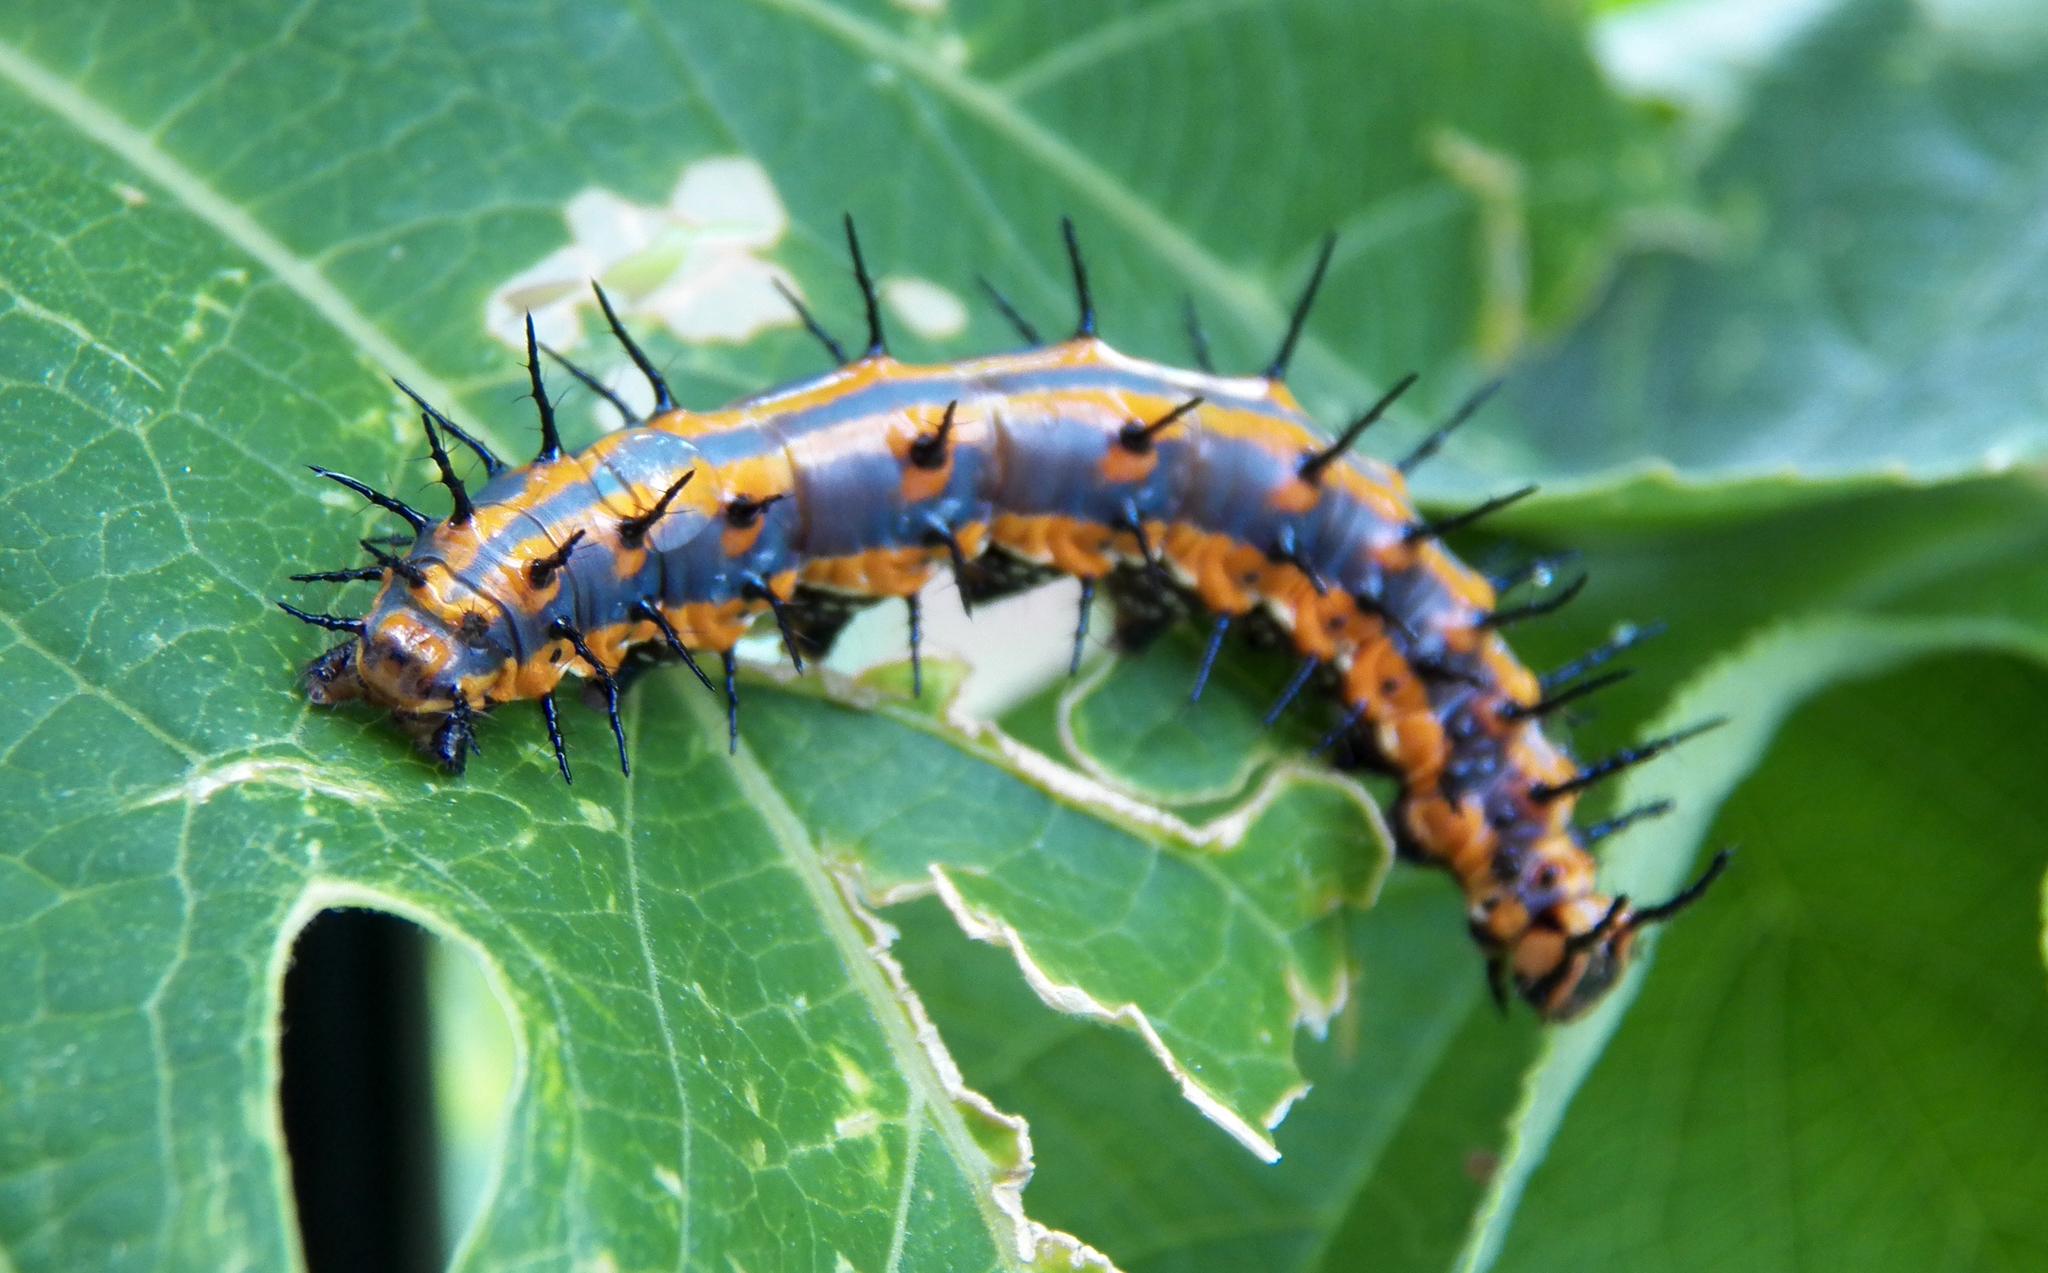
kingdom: Animalia
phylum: Arthropoda
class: Insecta
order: Lepidoptera
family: Nymphalidae
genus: Dione
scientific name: Dione vanillae
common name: Gulf fritillary
